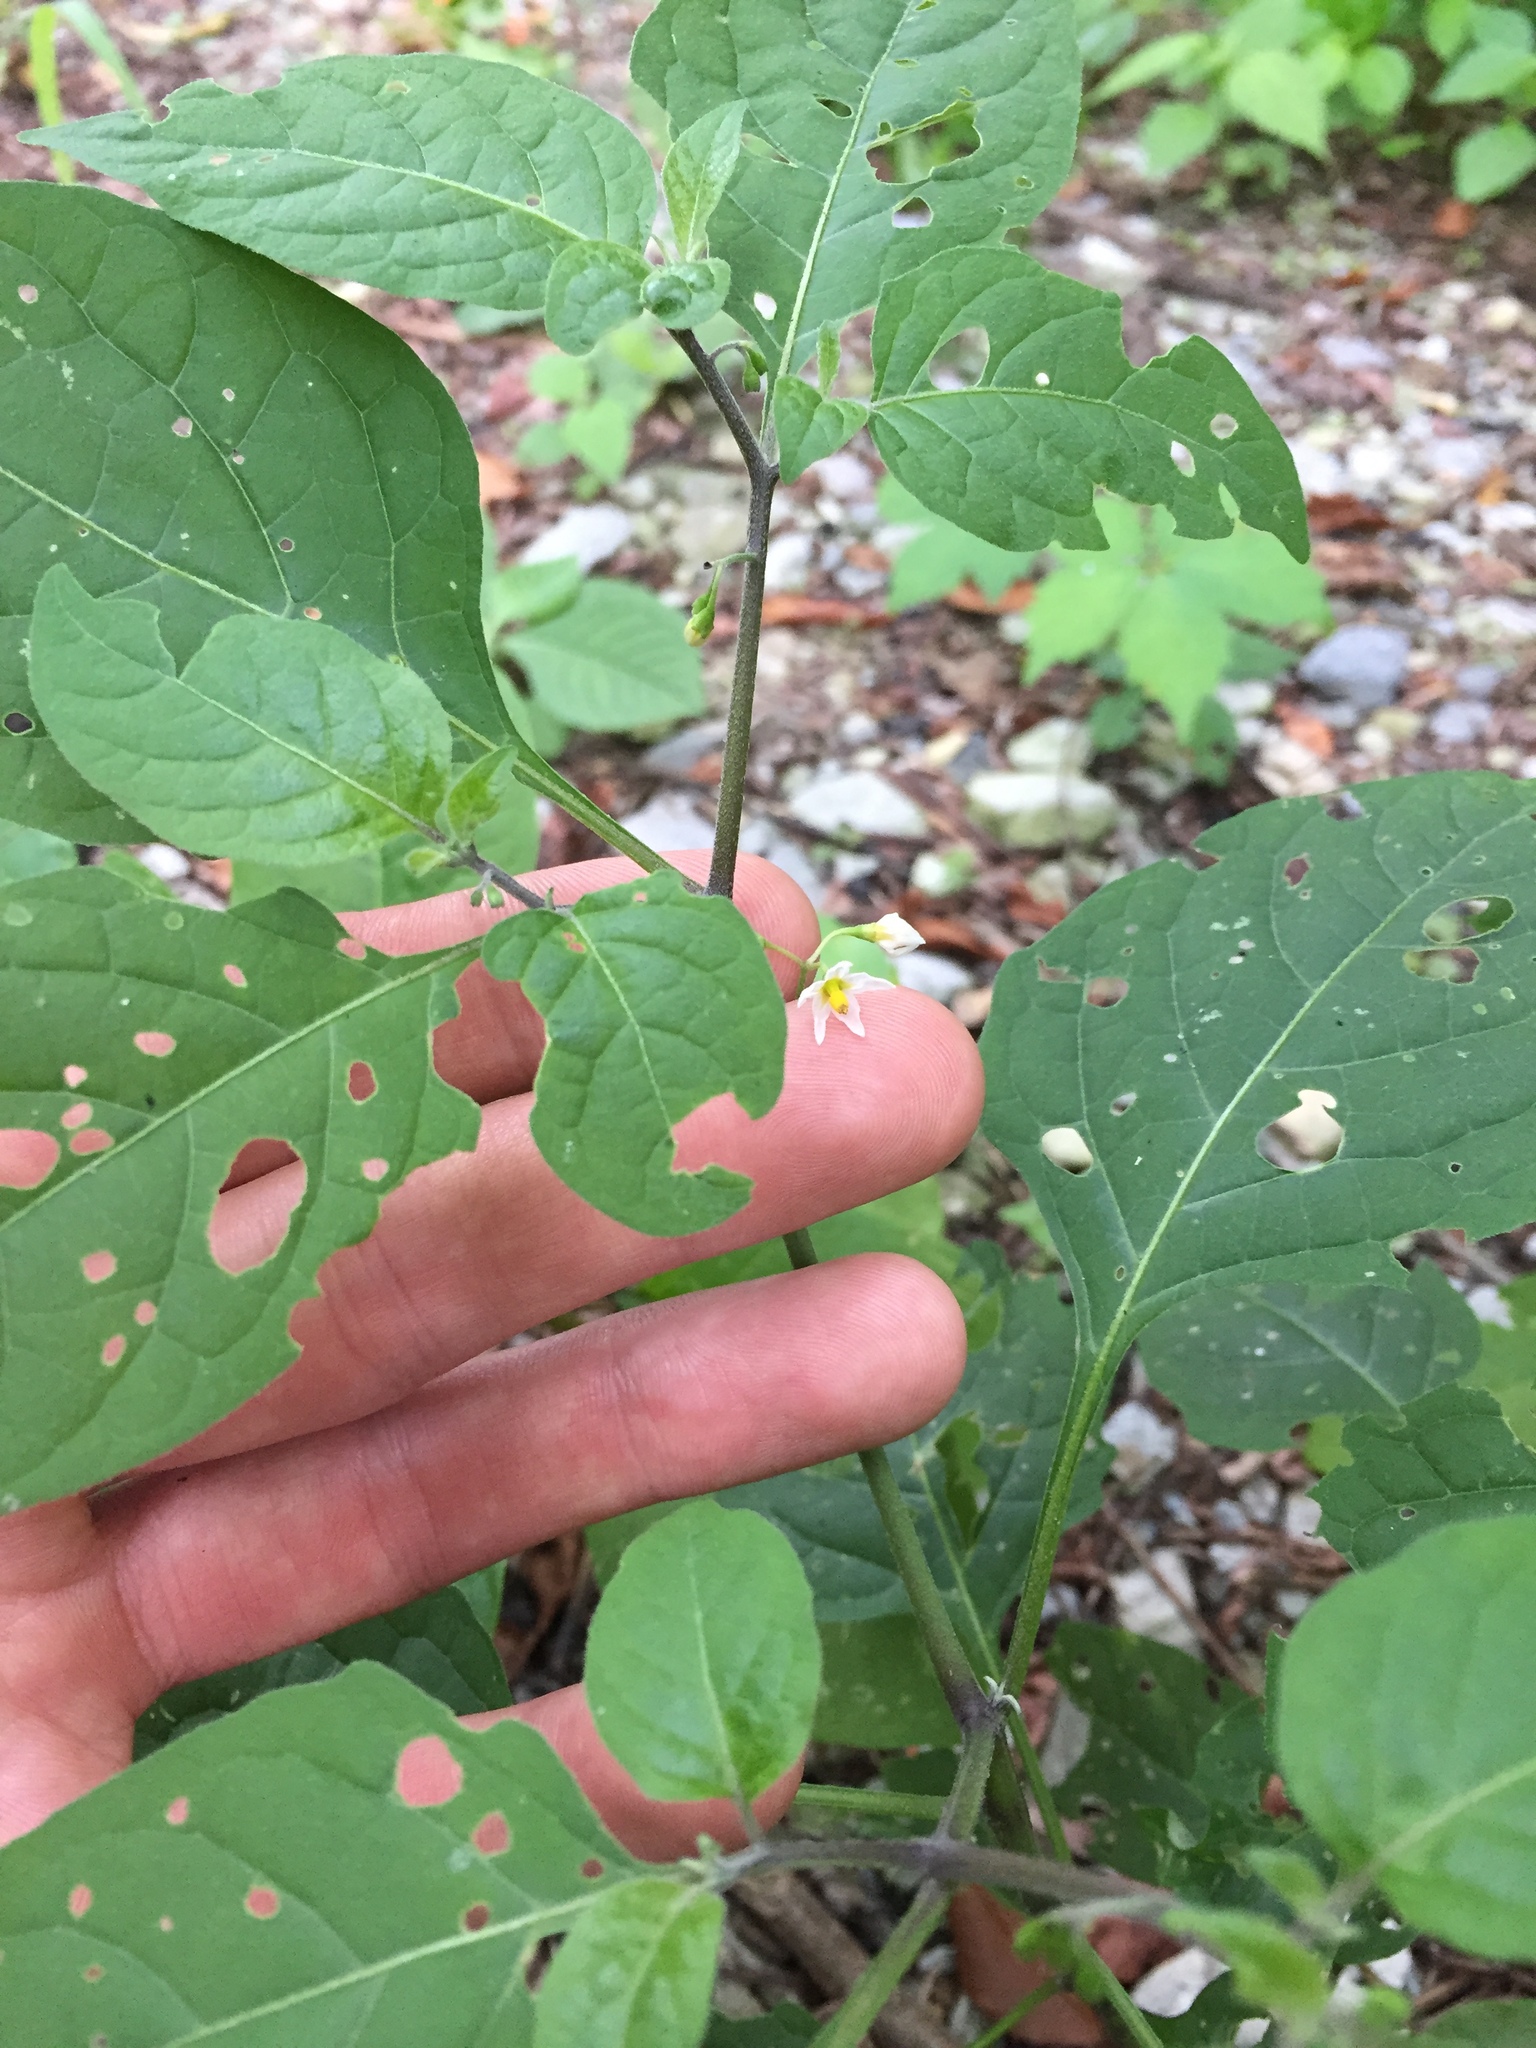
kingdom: Plantae
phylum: Tracheophyta
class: Magnoliopsida
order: Solanales
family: Solanaceae
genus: Solanum
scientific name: Solanum emulans
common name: Eastern black nightshade
